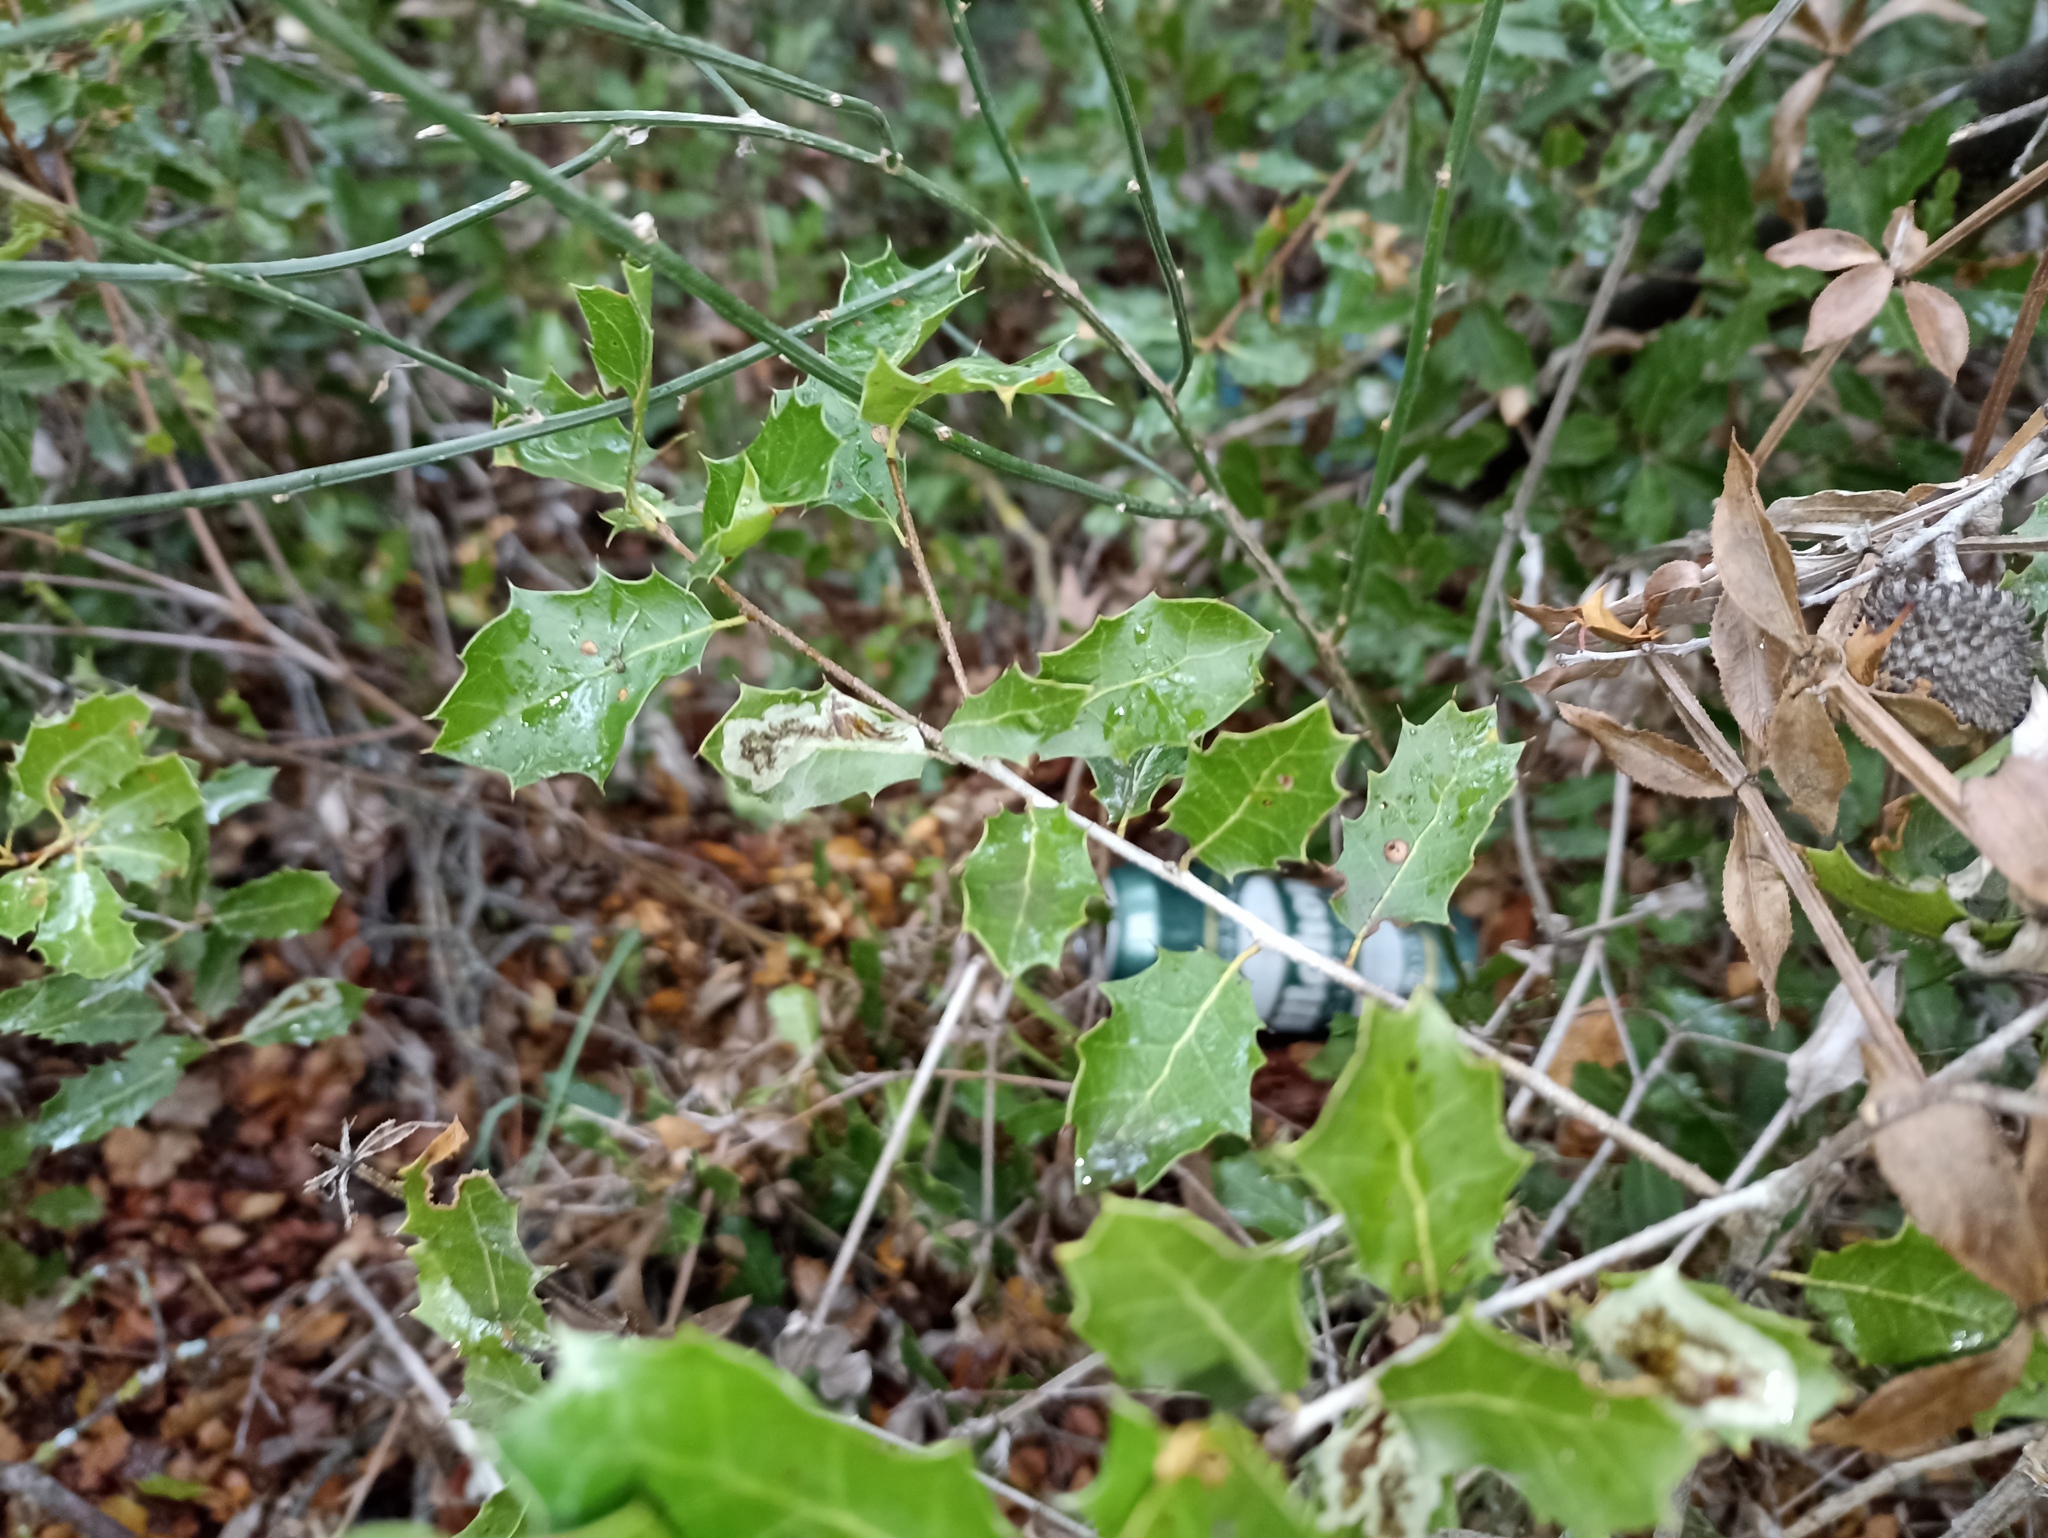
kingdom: Plantae
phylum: Tracheophyta
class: Magnoliopsida
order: Fagales
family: Fagaceae
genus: Quercus
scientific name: Quercus coccifera
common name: Kermes oak
